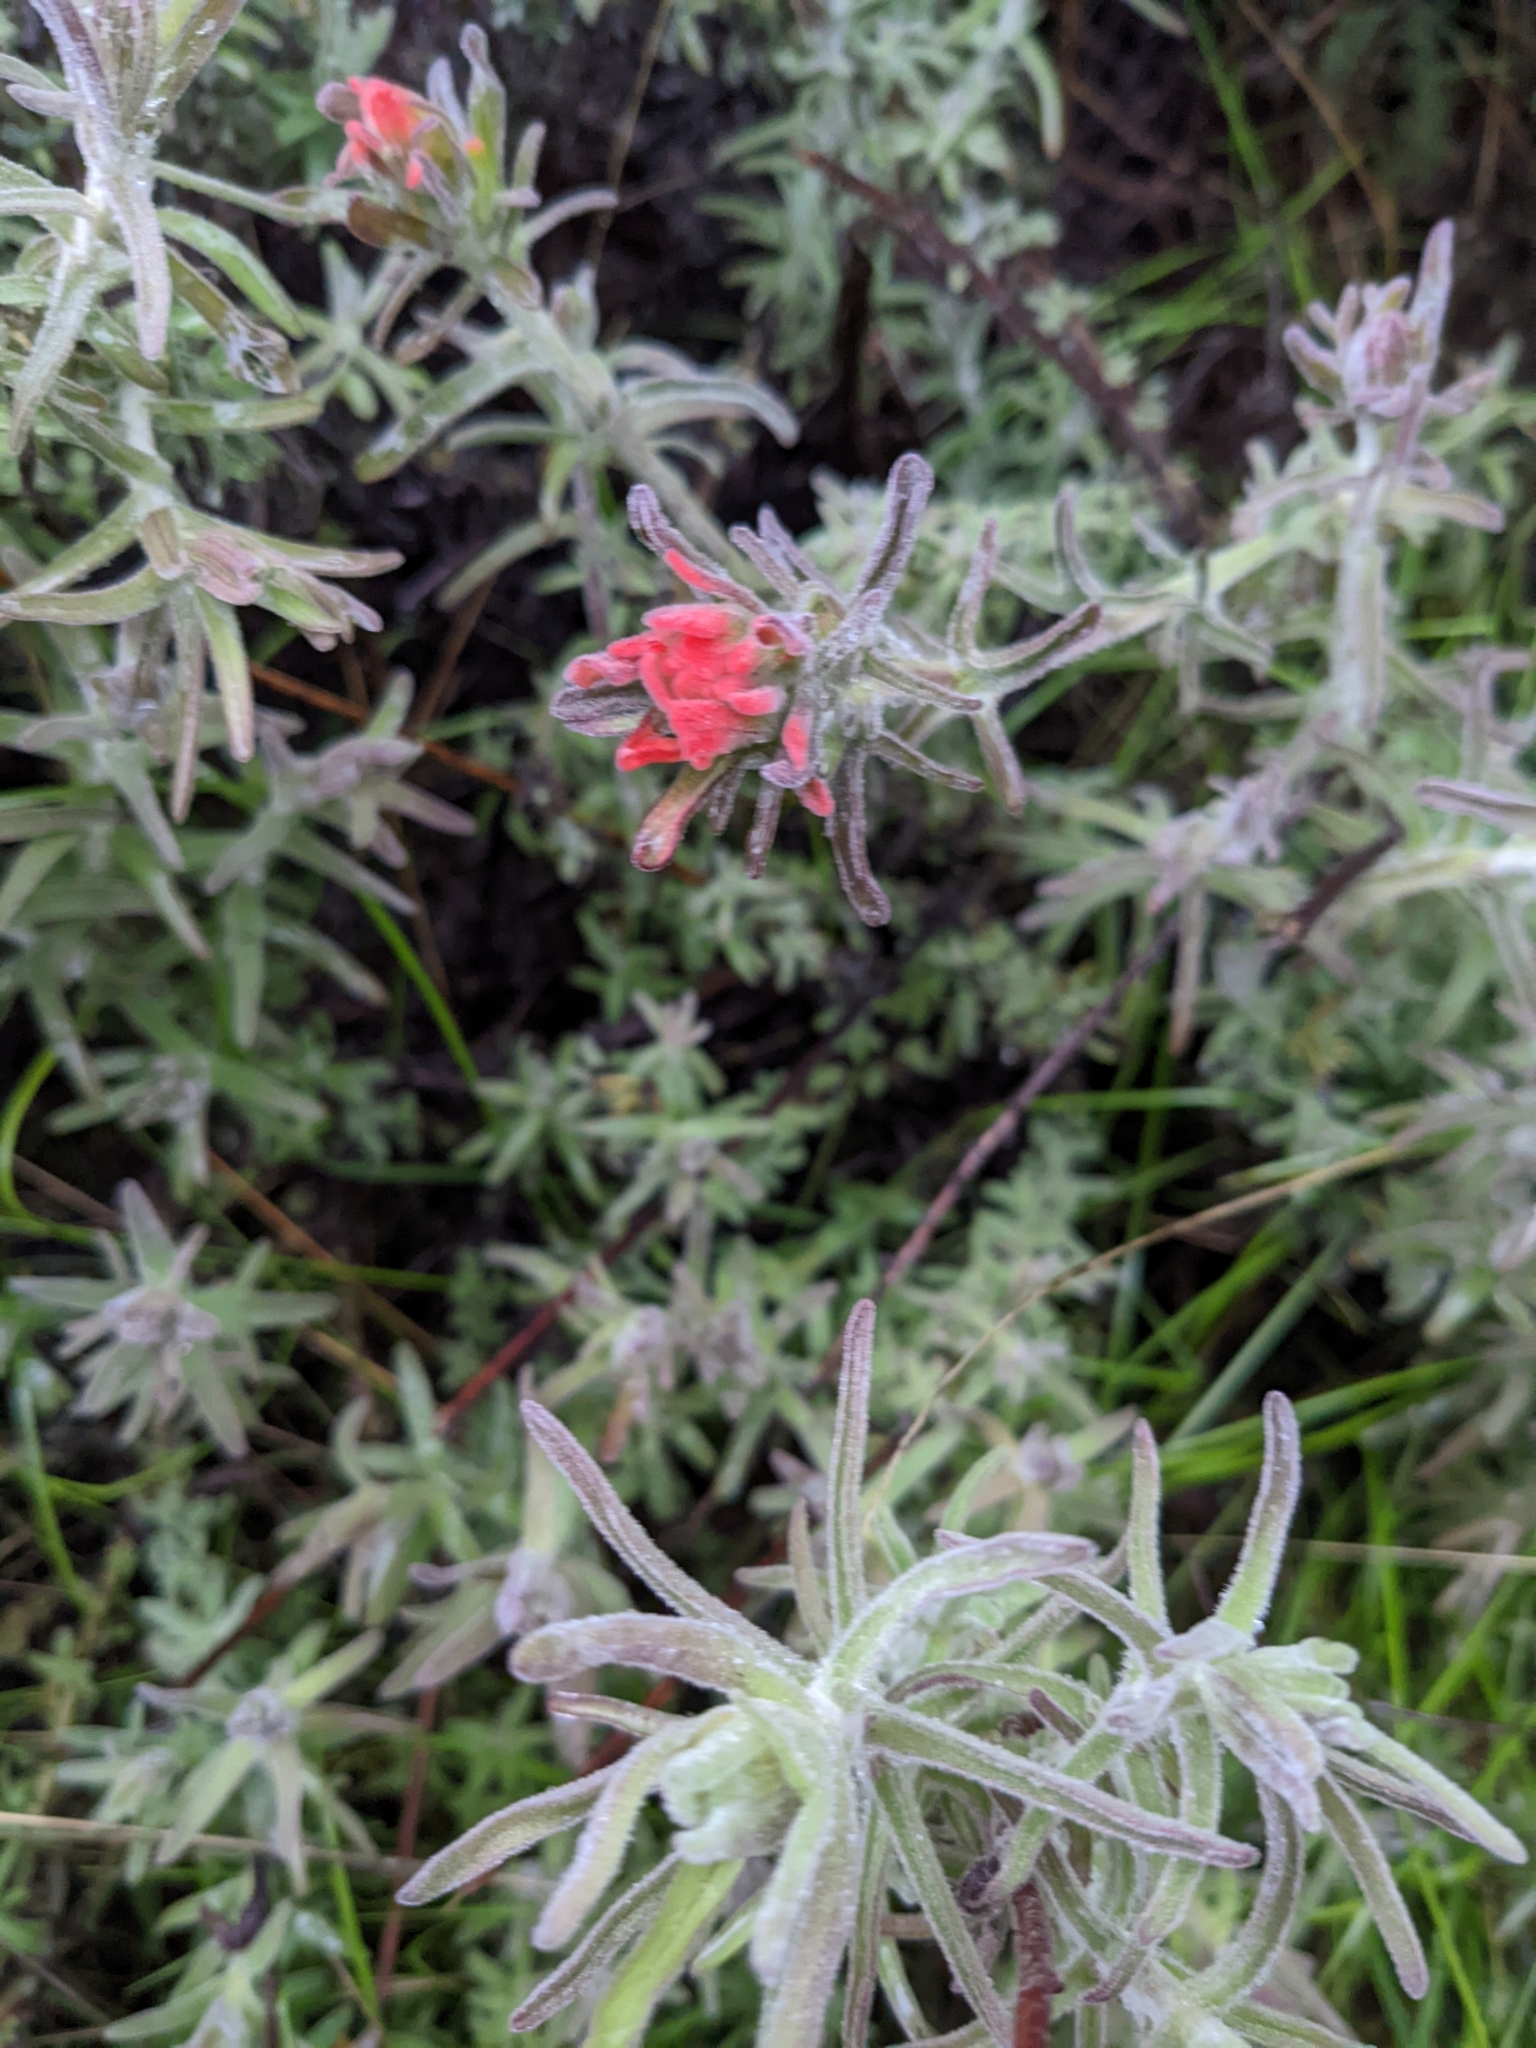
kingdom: Plantae
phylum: Tracheophyta
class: Magnoliopsida
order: Lamiales
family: Orobanchaceae
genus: Castilleja
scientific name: Castilleja foliolosa
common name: Woolly indian paintbrush
